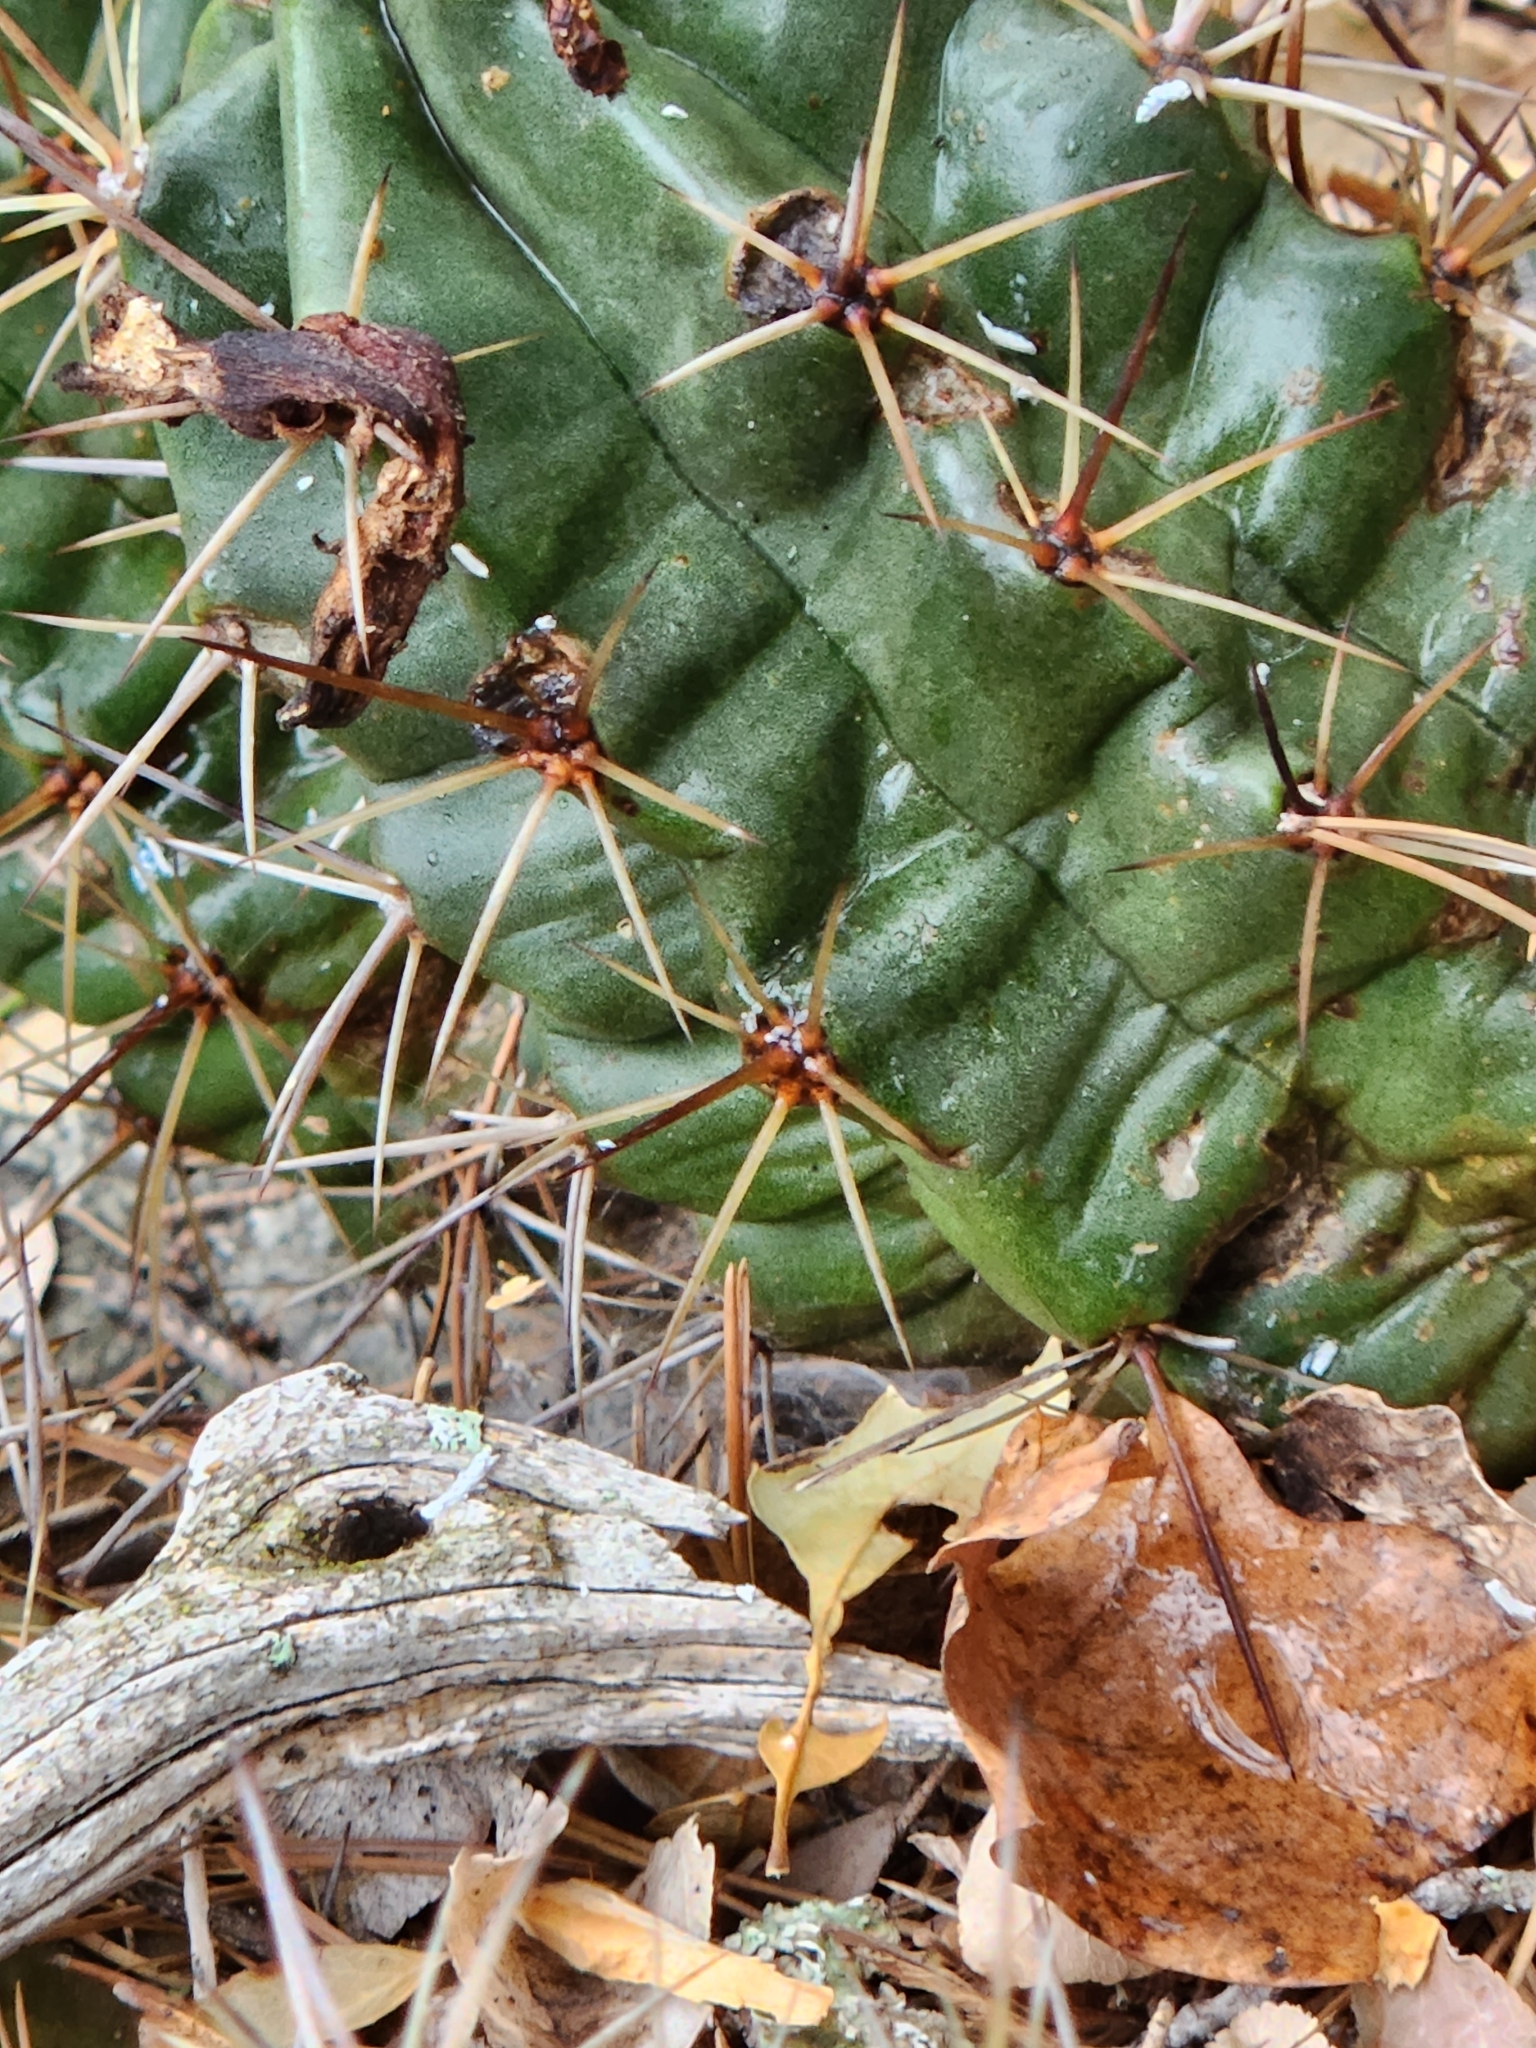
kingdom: Plantae
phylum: Tracheophyta
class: Magnoliopsida
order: Caryophyllales
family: Cactaceae
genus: Echinocereus
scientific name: Echinocereus coccineus
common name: Scarlet hedgehog cactus
